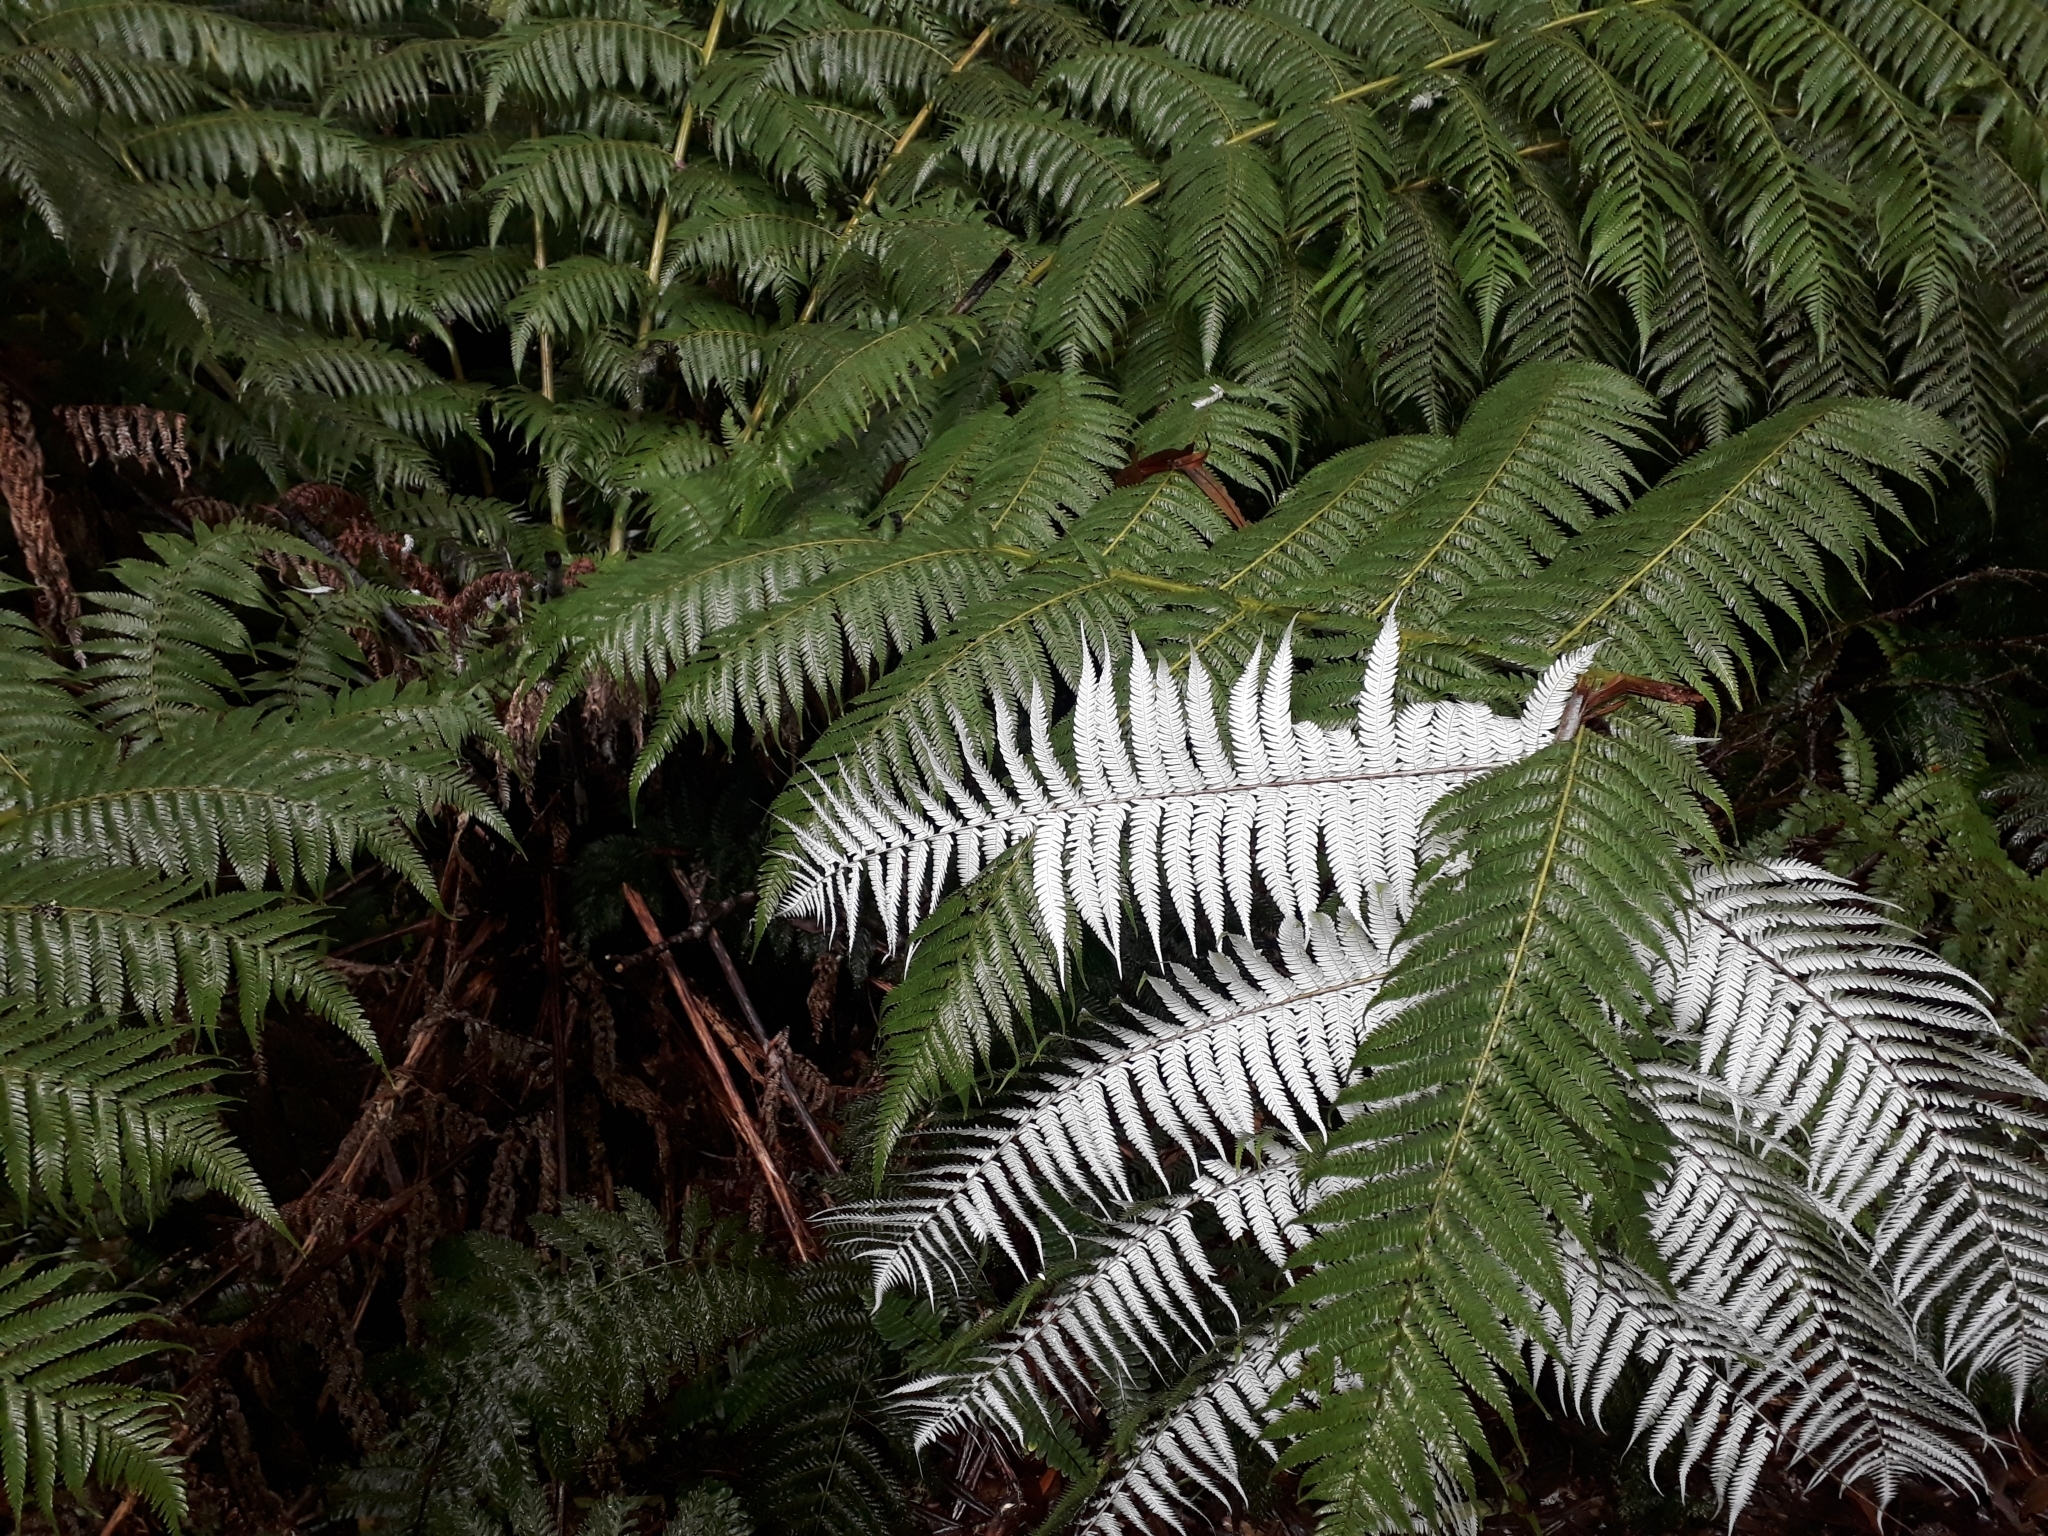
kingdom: Plantae
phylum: Tracheophyta
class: Polypodiopsida
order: Cyatheales
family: Cyatheaceae
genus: Alsophila
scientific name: Alsophila dealbata
